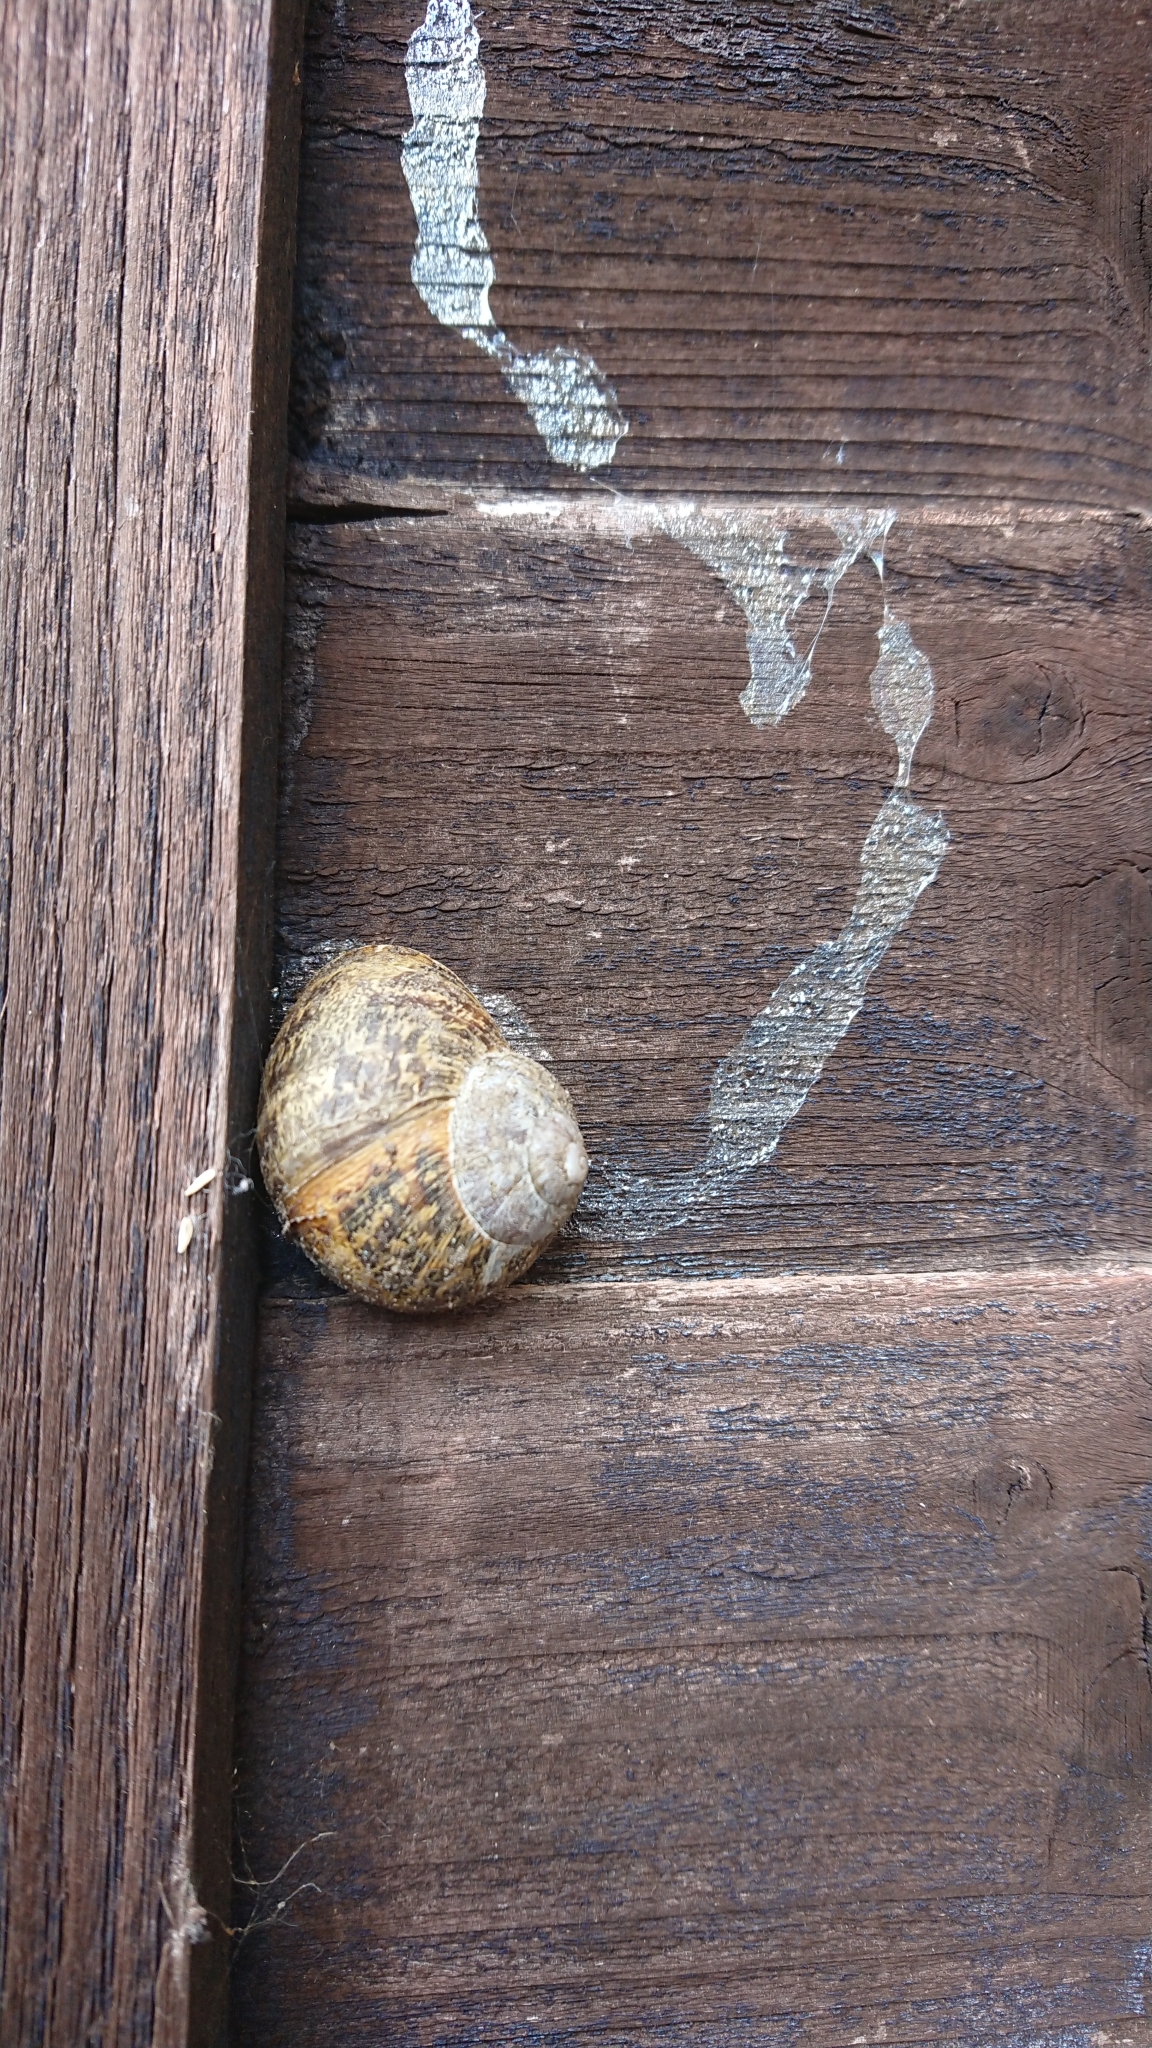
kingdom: Animalia
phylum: Mollusca
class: Gastropoda
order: Stylommatophora
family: Helicidae
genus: Cornu
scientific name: Cornu aspersum
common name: Brown garden snail
